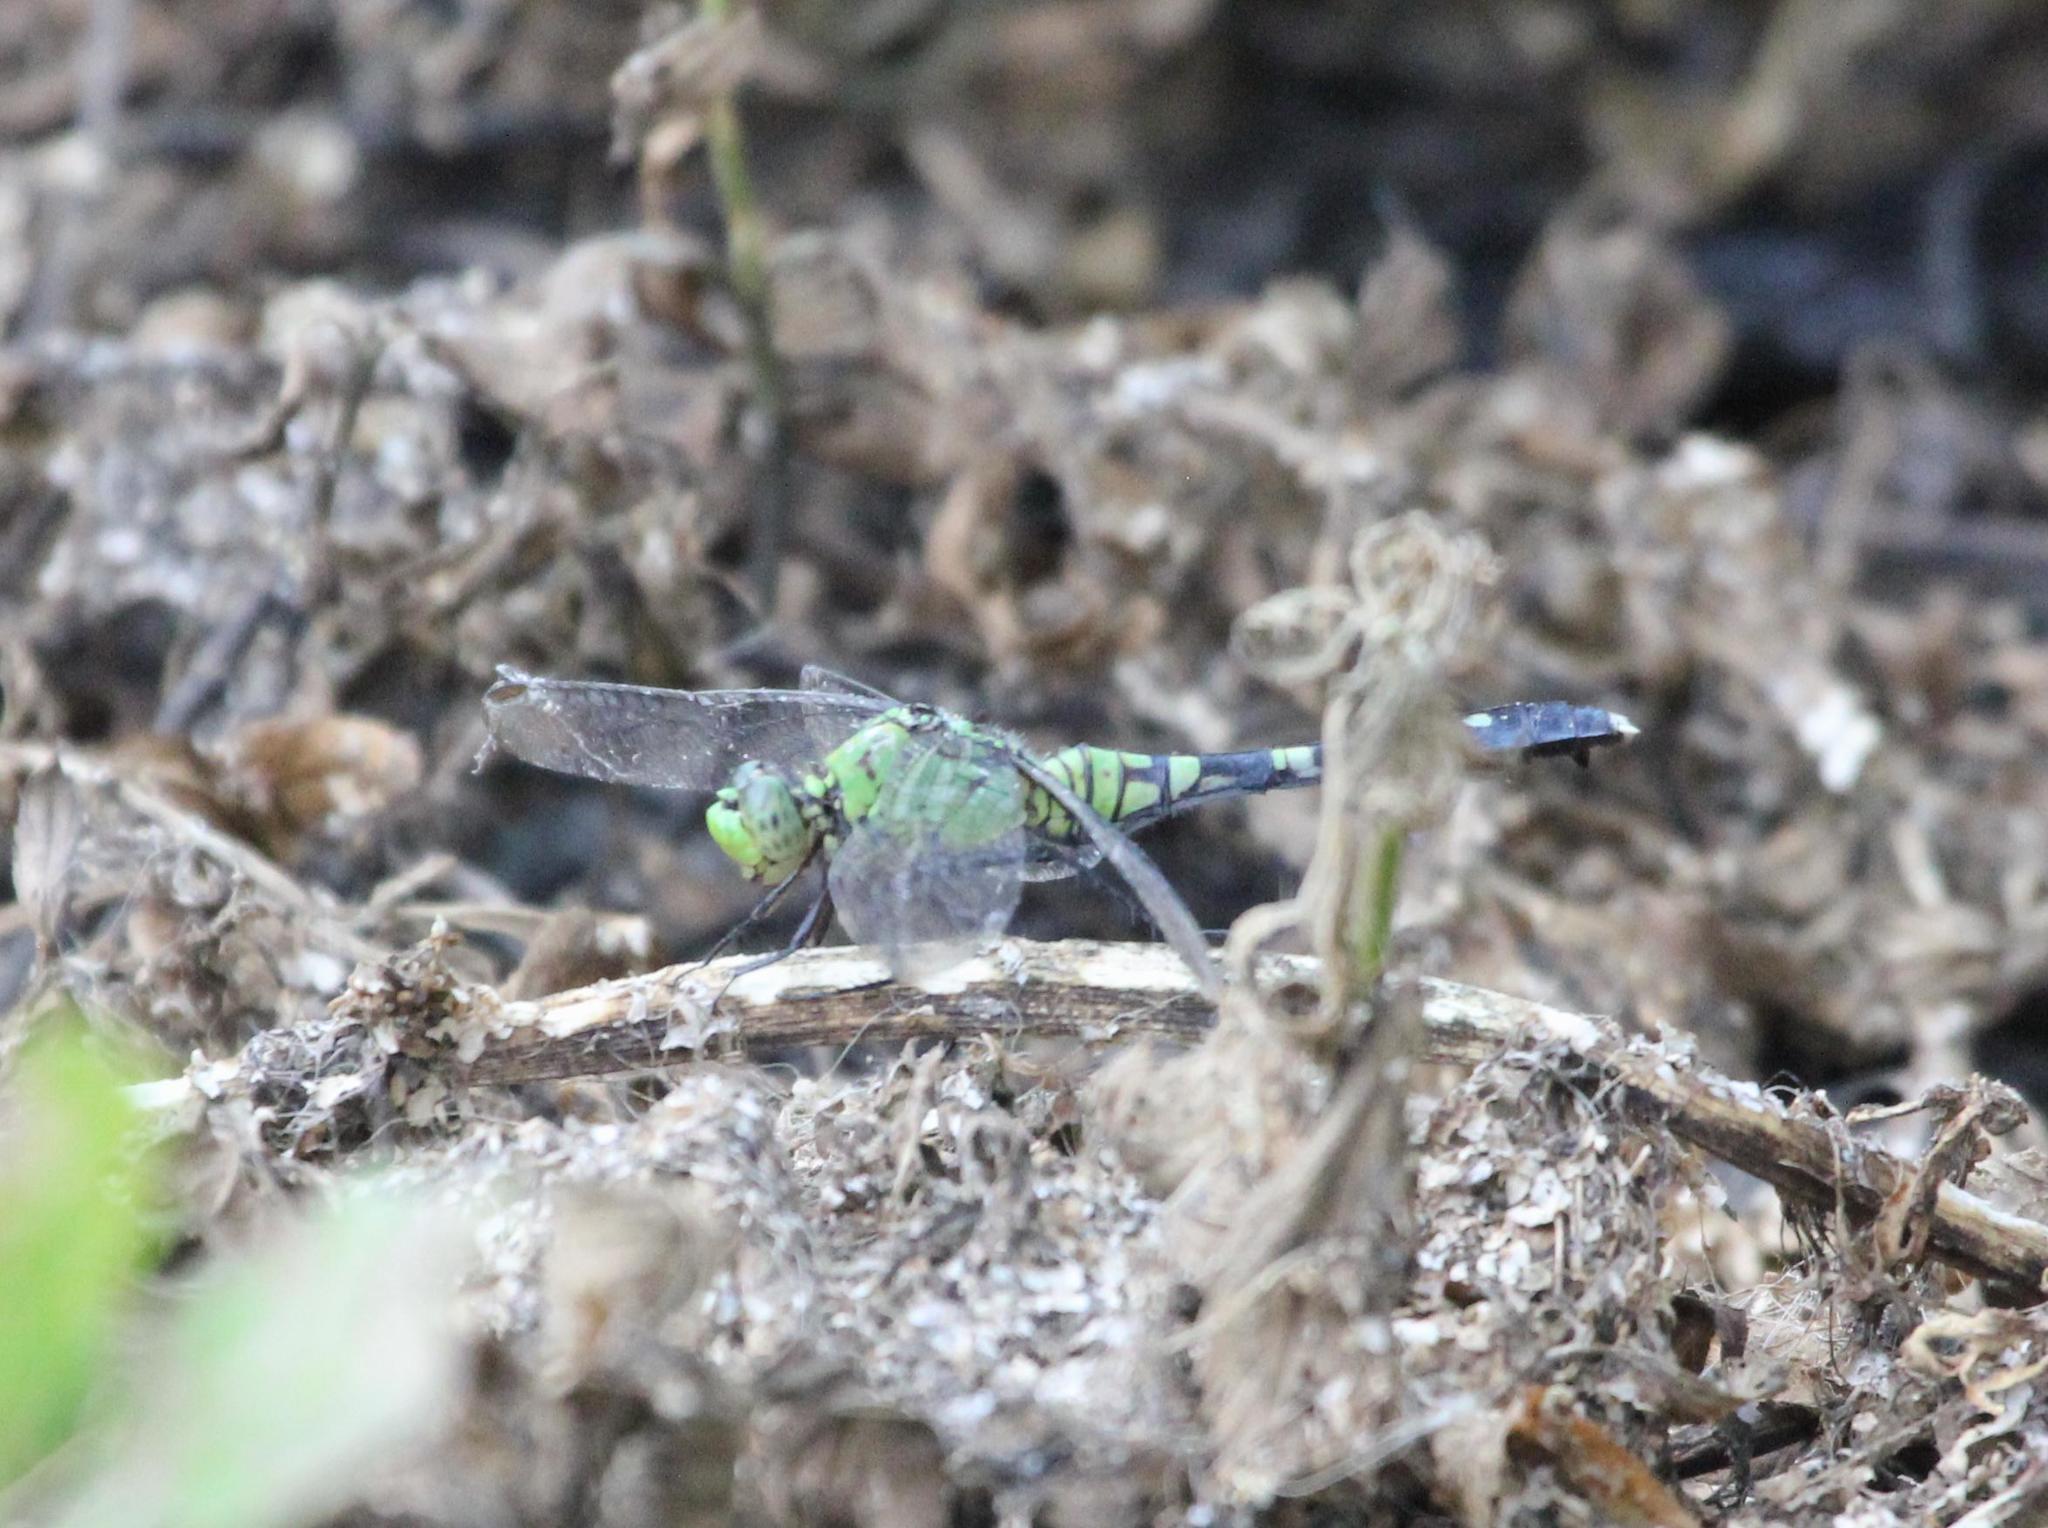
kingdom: Animalia
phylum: Arthropoda
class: Insecta
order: Odonata
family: Libellulidae
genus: Erythemis
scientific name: Erythemis simplicicollis
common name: Eastern pondhawk
